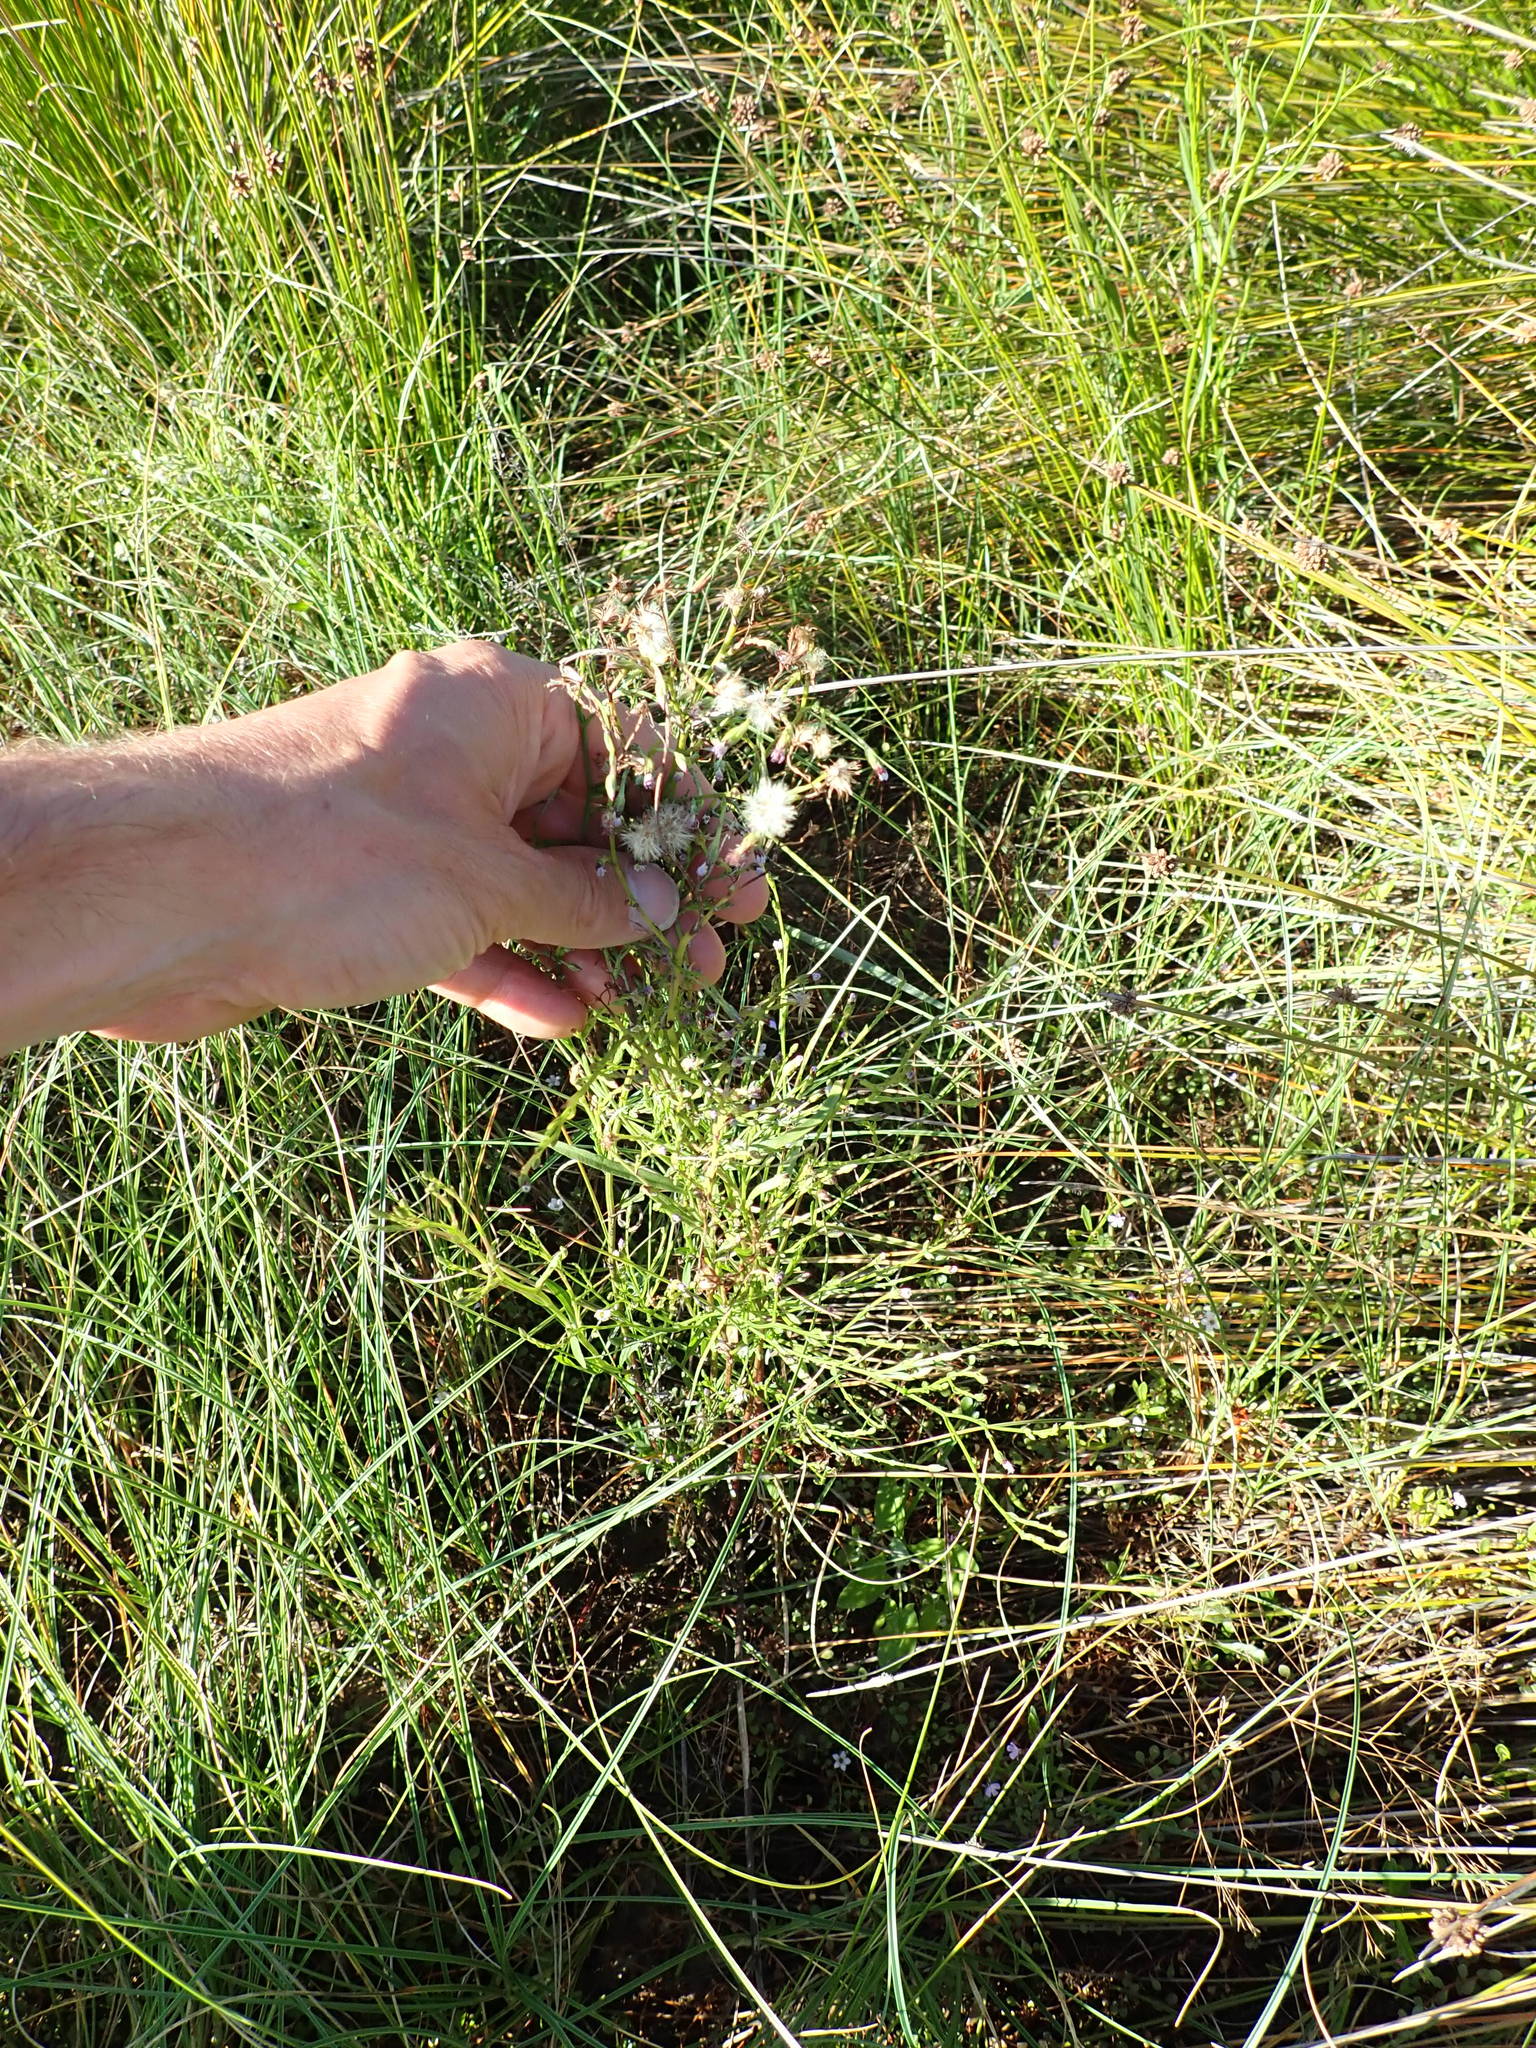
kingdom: Plantae
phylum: Tracheophyta
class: Magnoliopsida
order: Asterales
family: Asteraceae
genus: Symphyotrichum
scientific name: Symphyotrichum subulatum
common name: Annual saltmarsh aster
